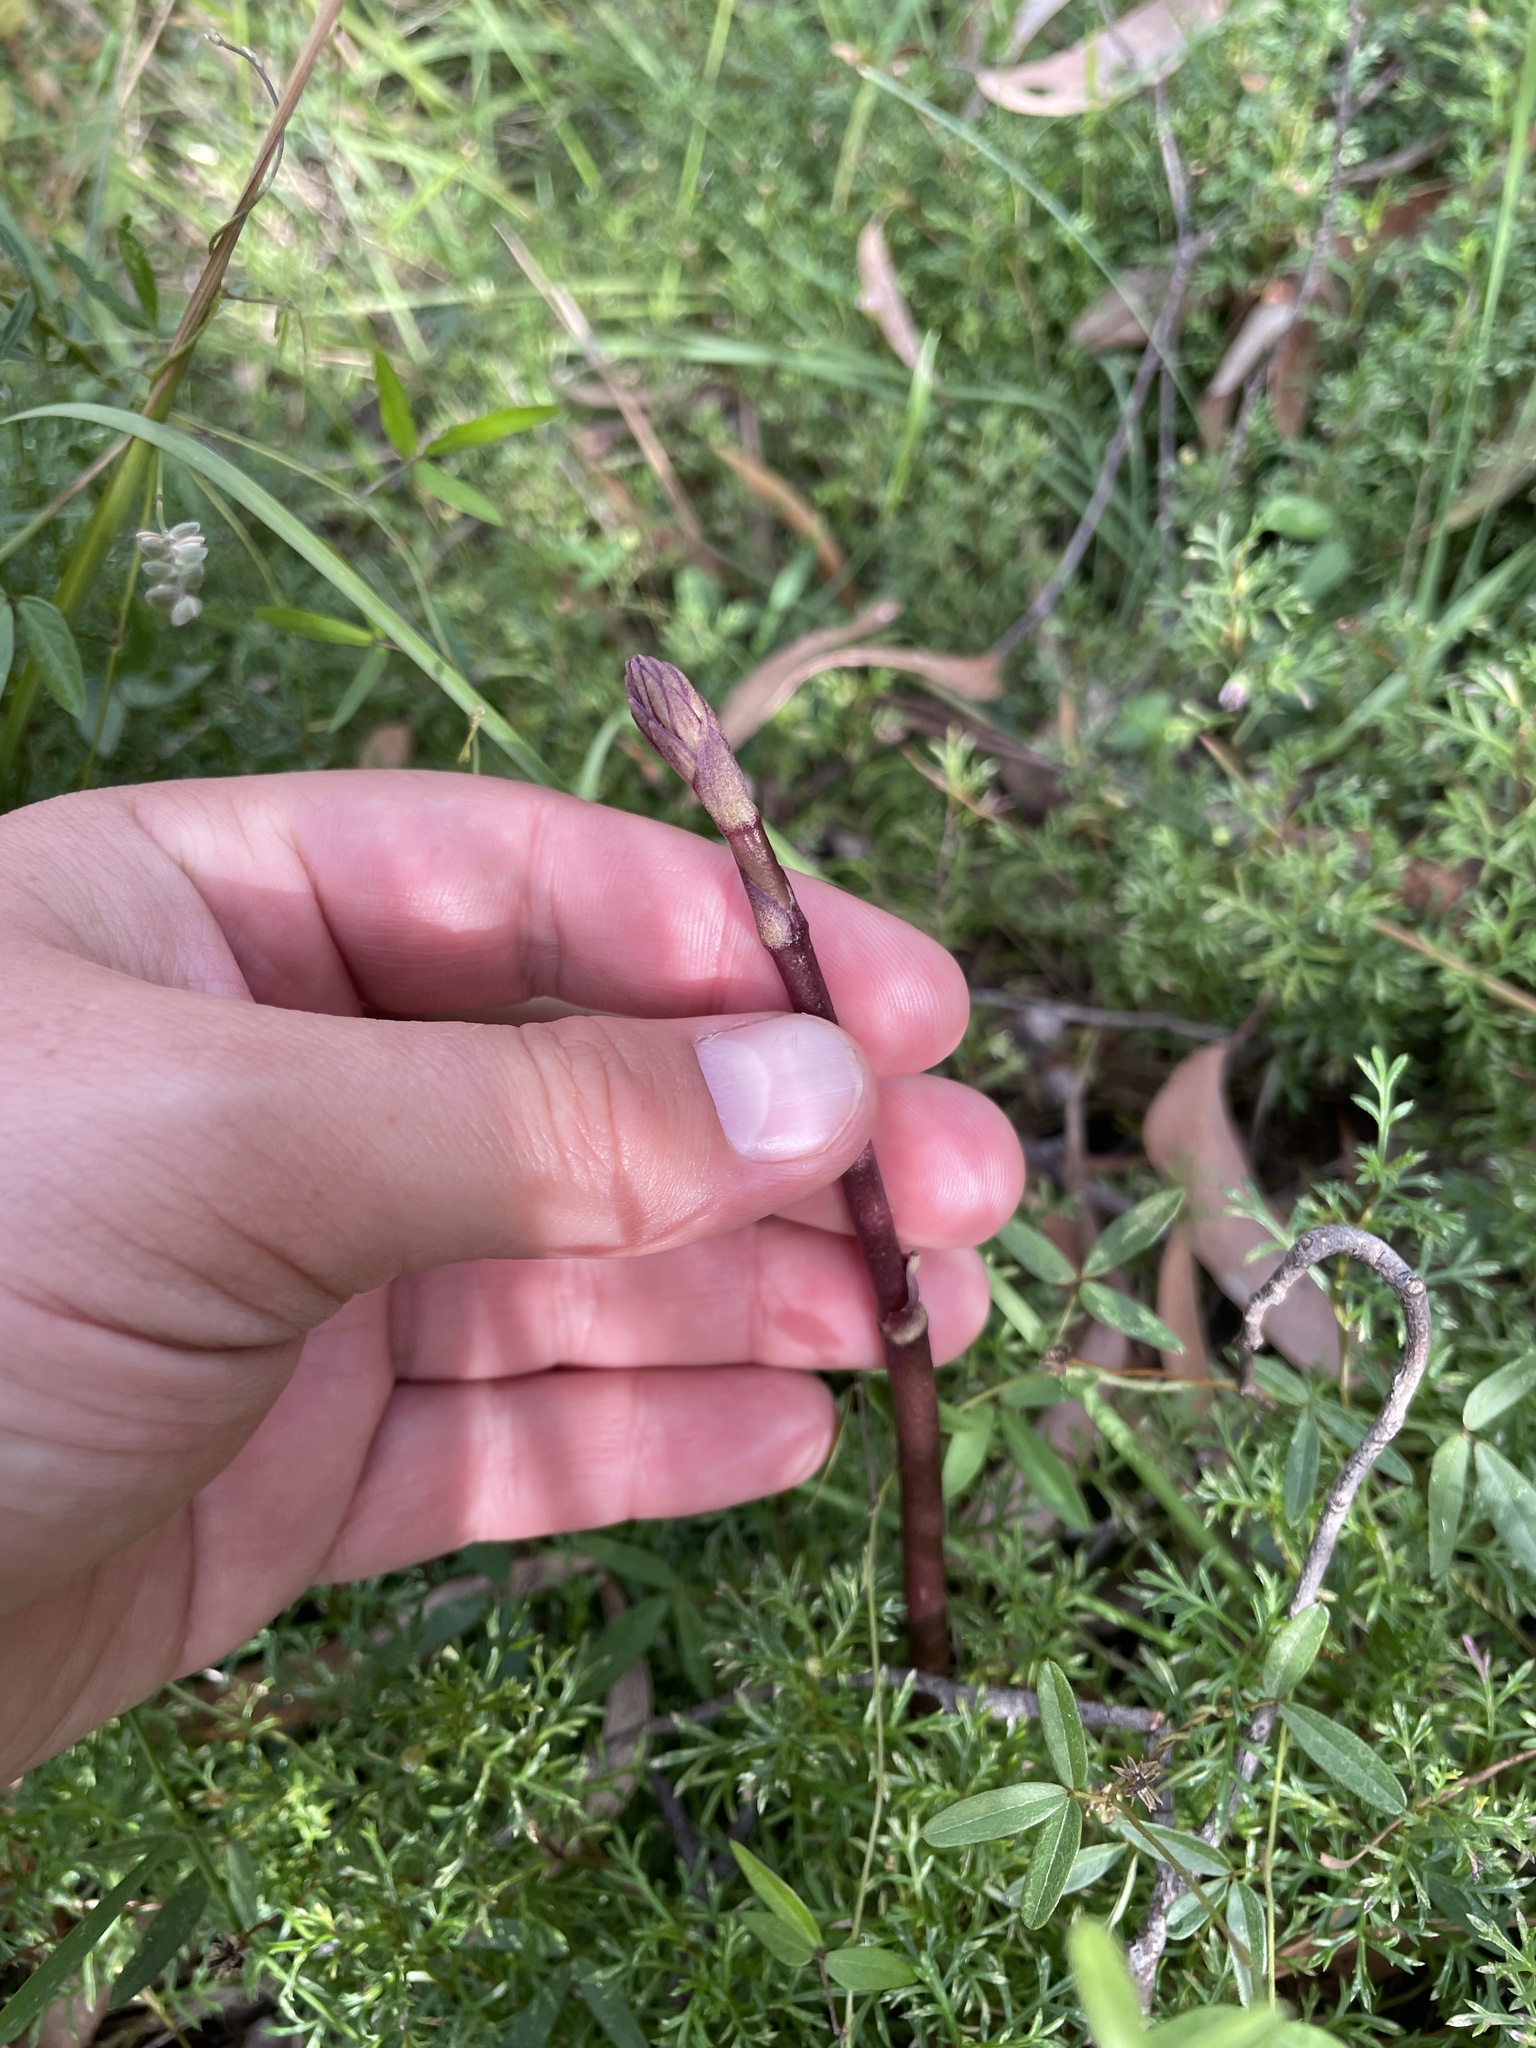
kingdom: Plantae
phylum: Tracheophyta
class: Liliopsida
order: Asparagales
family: Orchidaceae
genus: Dipodium
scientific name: Dipodium roseum
